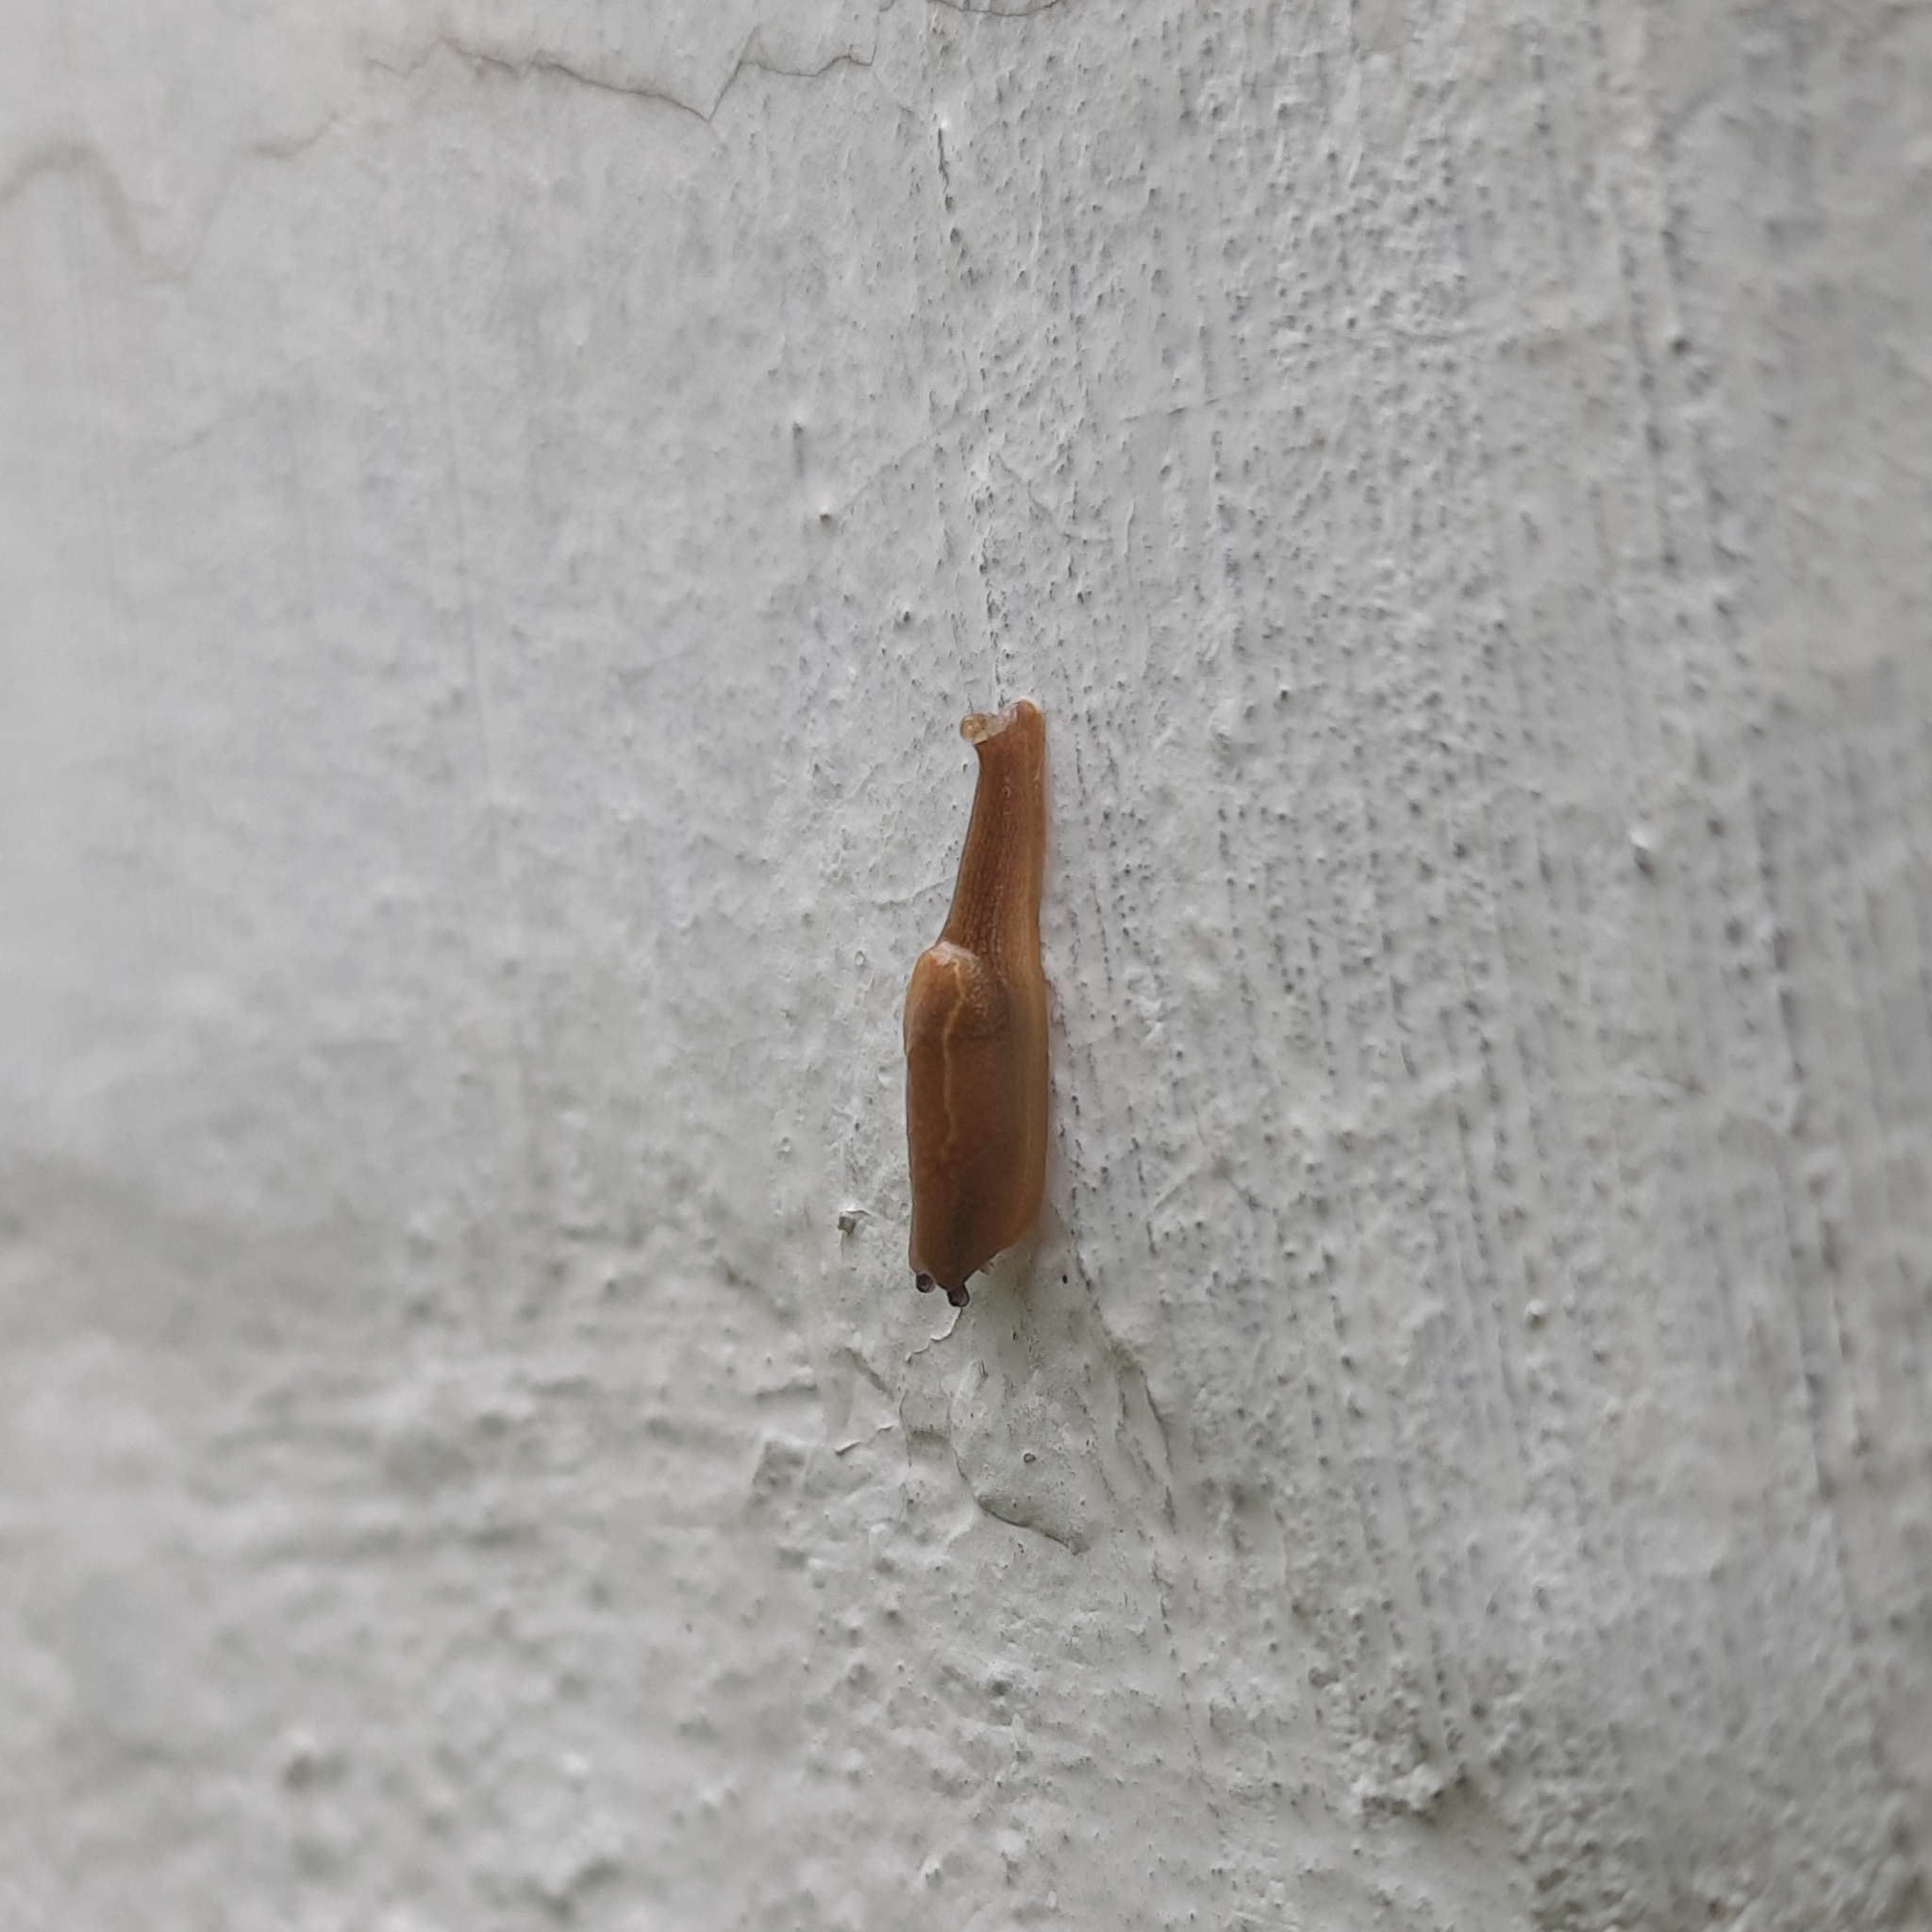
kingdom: Animalia
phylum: Mollusca
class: Gastropoda
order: Stylommatophora
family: Ariophantidae
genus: Mariaella
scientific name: Mariaella dussumieri
